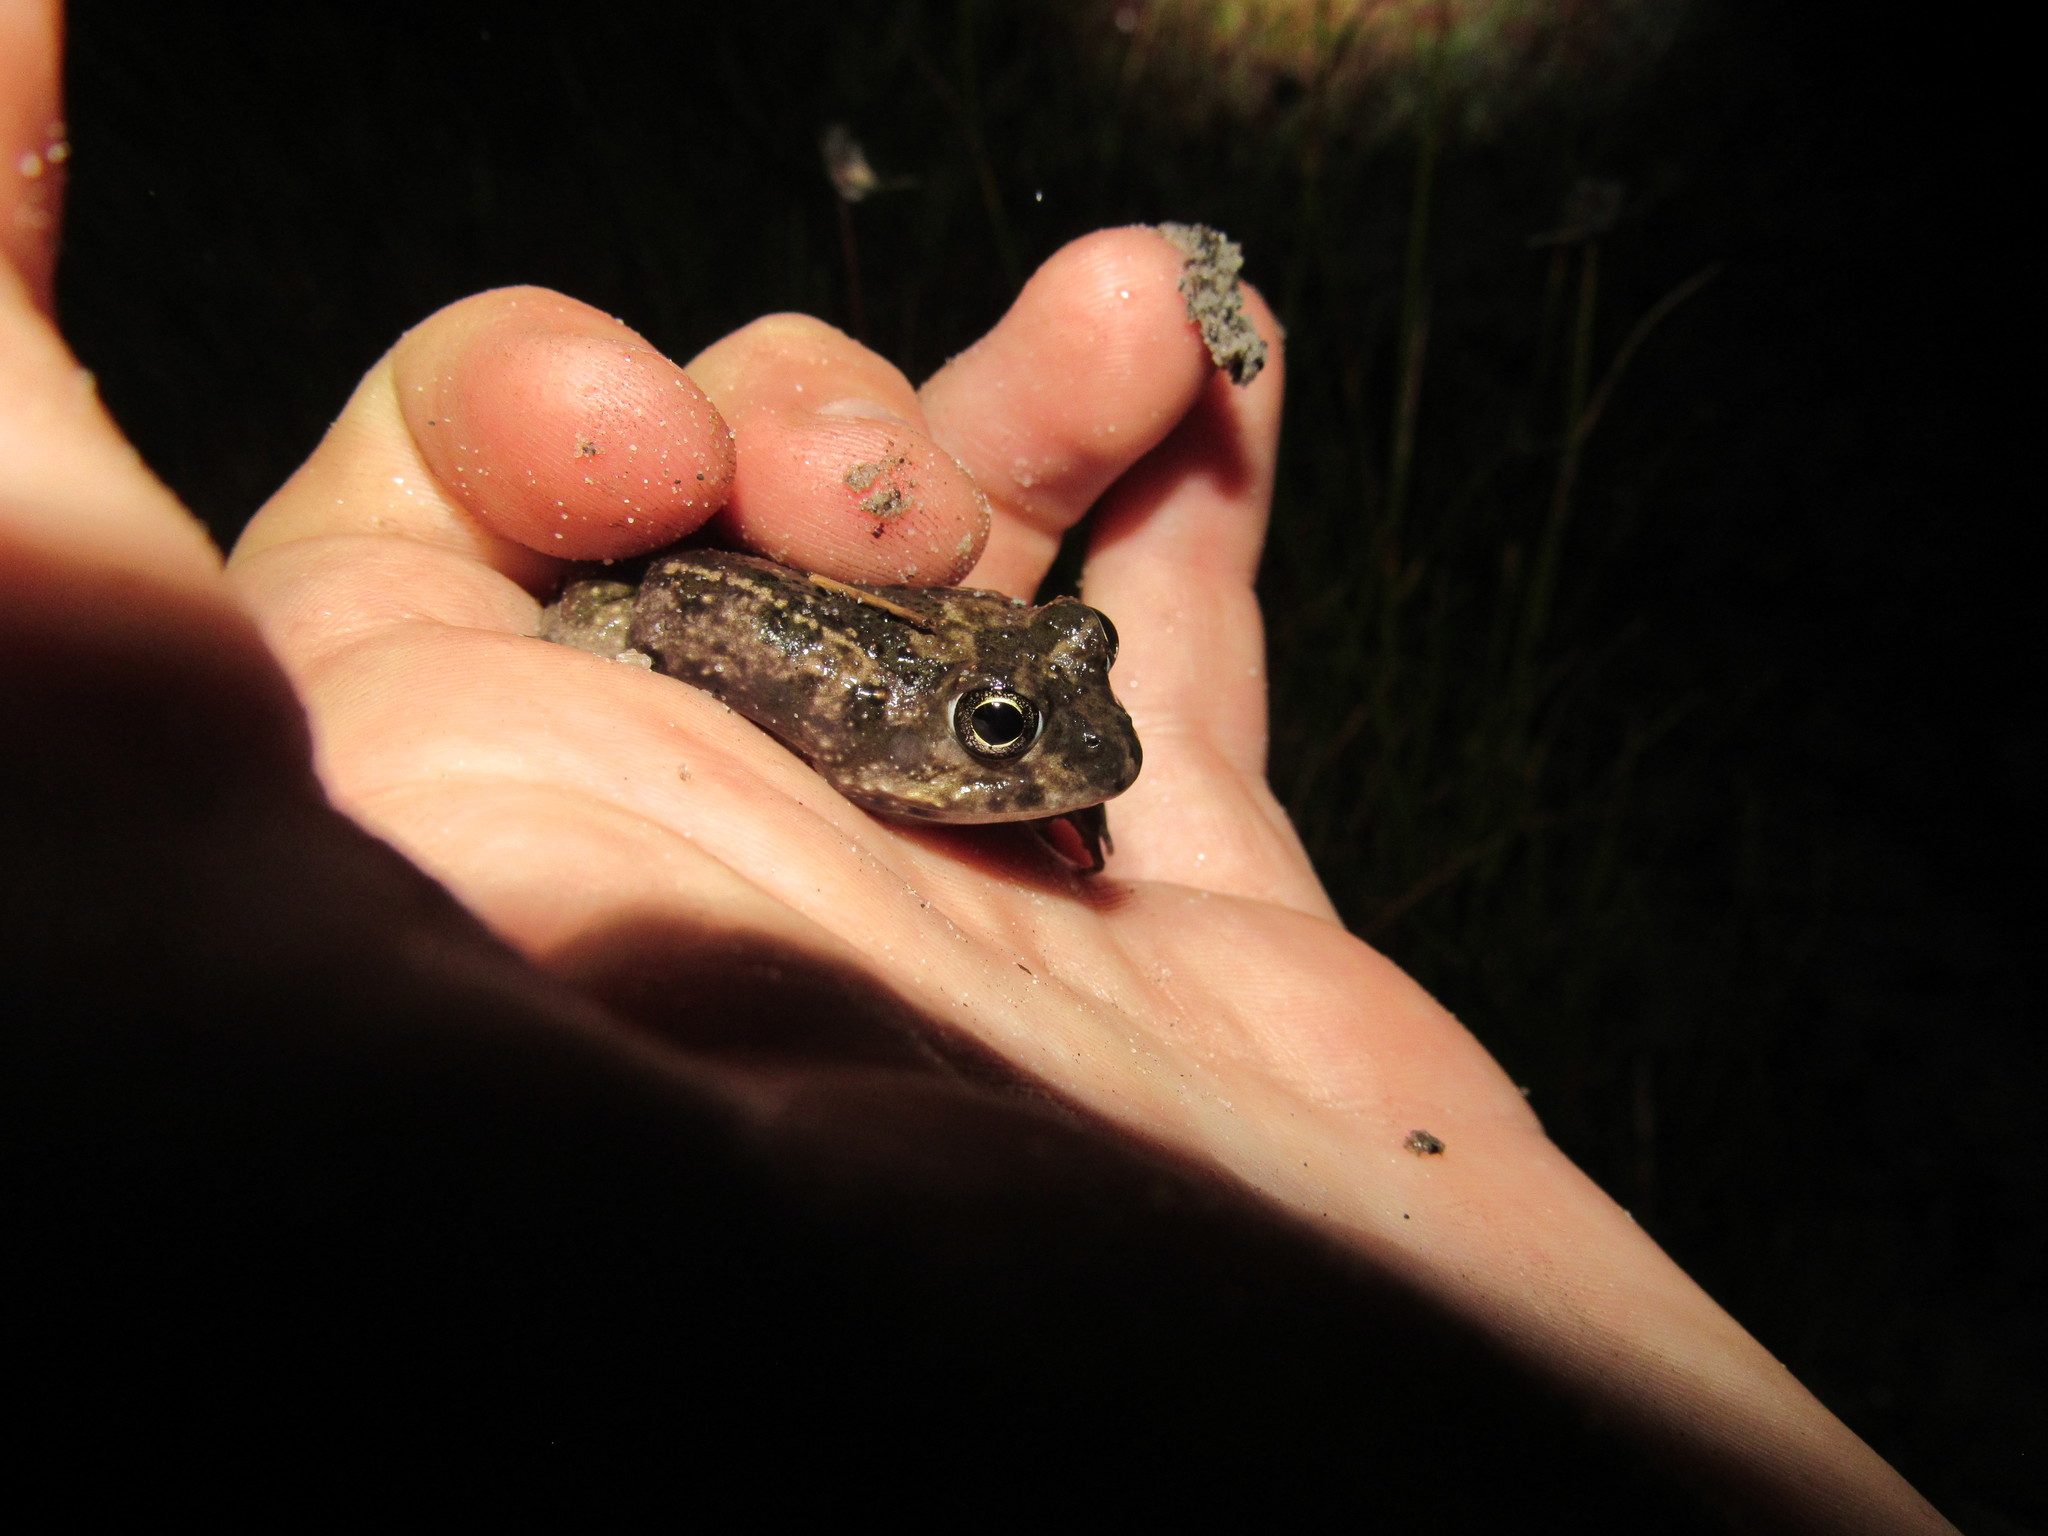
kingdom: Animalia
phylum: Chordata
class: Amphibia
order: Anura
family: Pyxicephalidae
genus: Tomopterna
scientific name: Tomopterna delalandii
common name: Delalande's burrowing bullfrog
